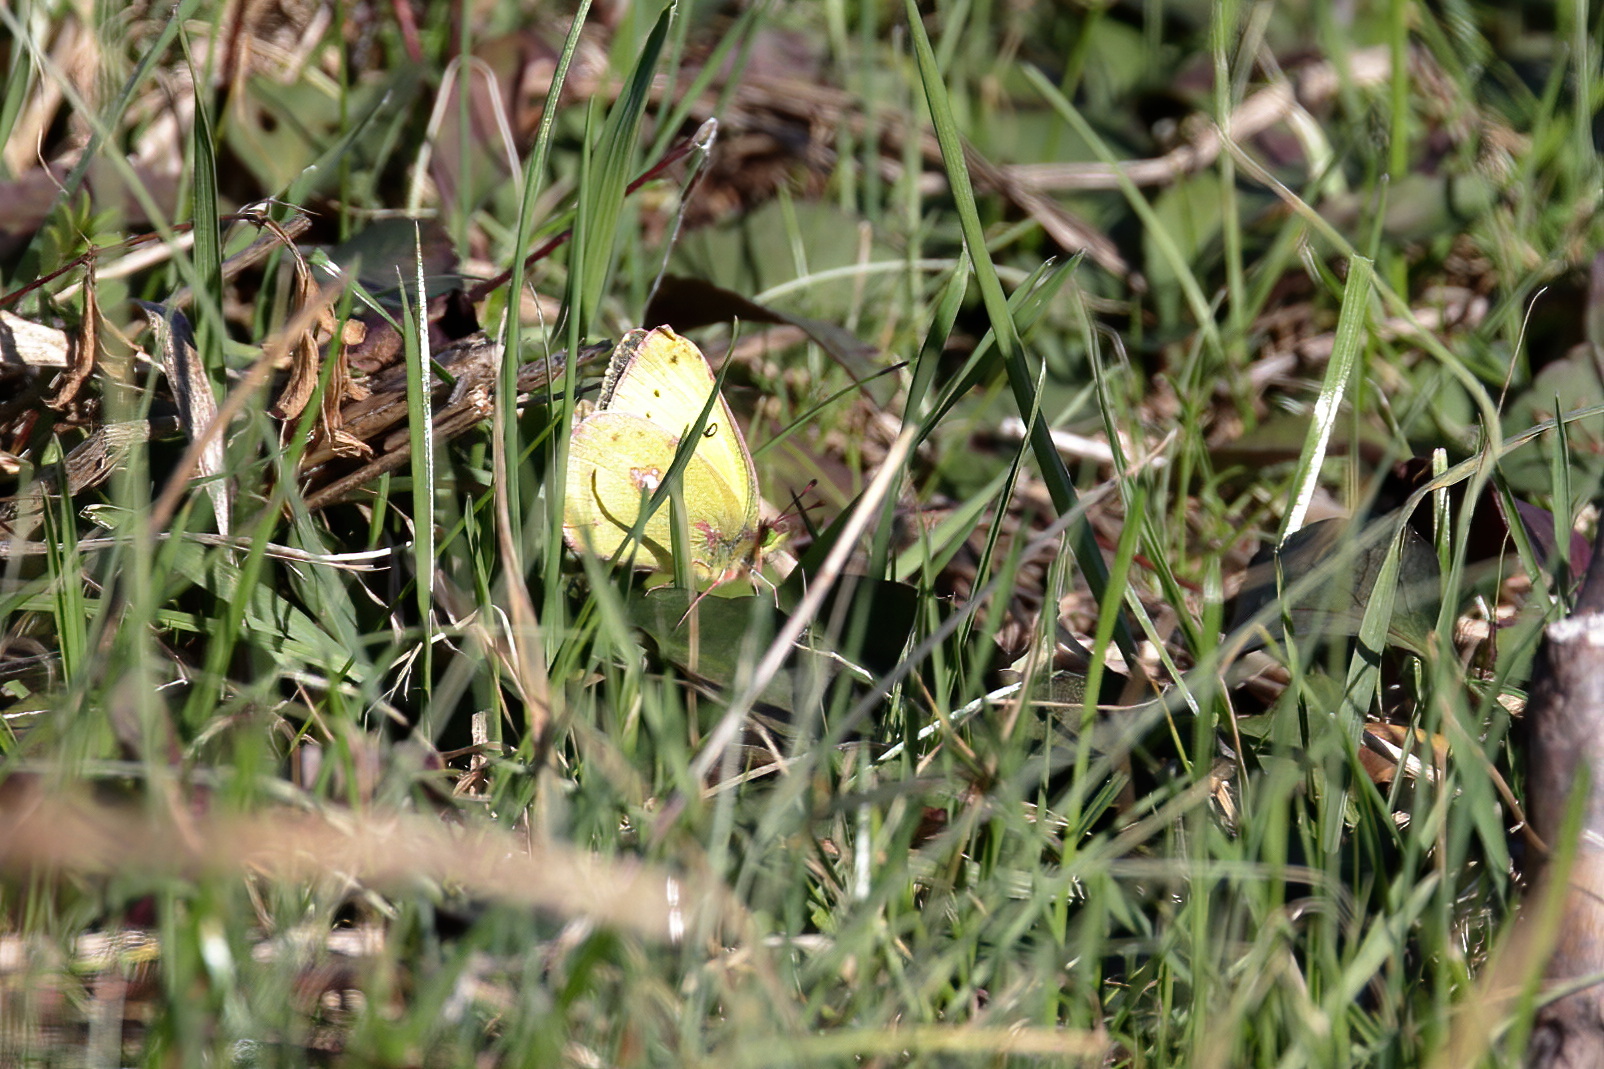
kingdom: Animalia
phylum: Arthropoda
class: Insecta
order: Lepidoptera
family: Pieridae
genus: Colias
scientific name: Colias eurytheme
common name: Alfalfa butterfly
